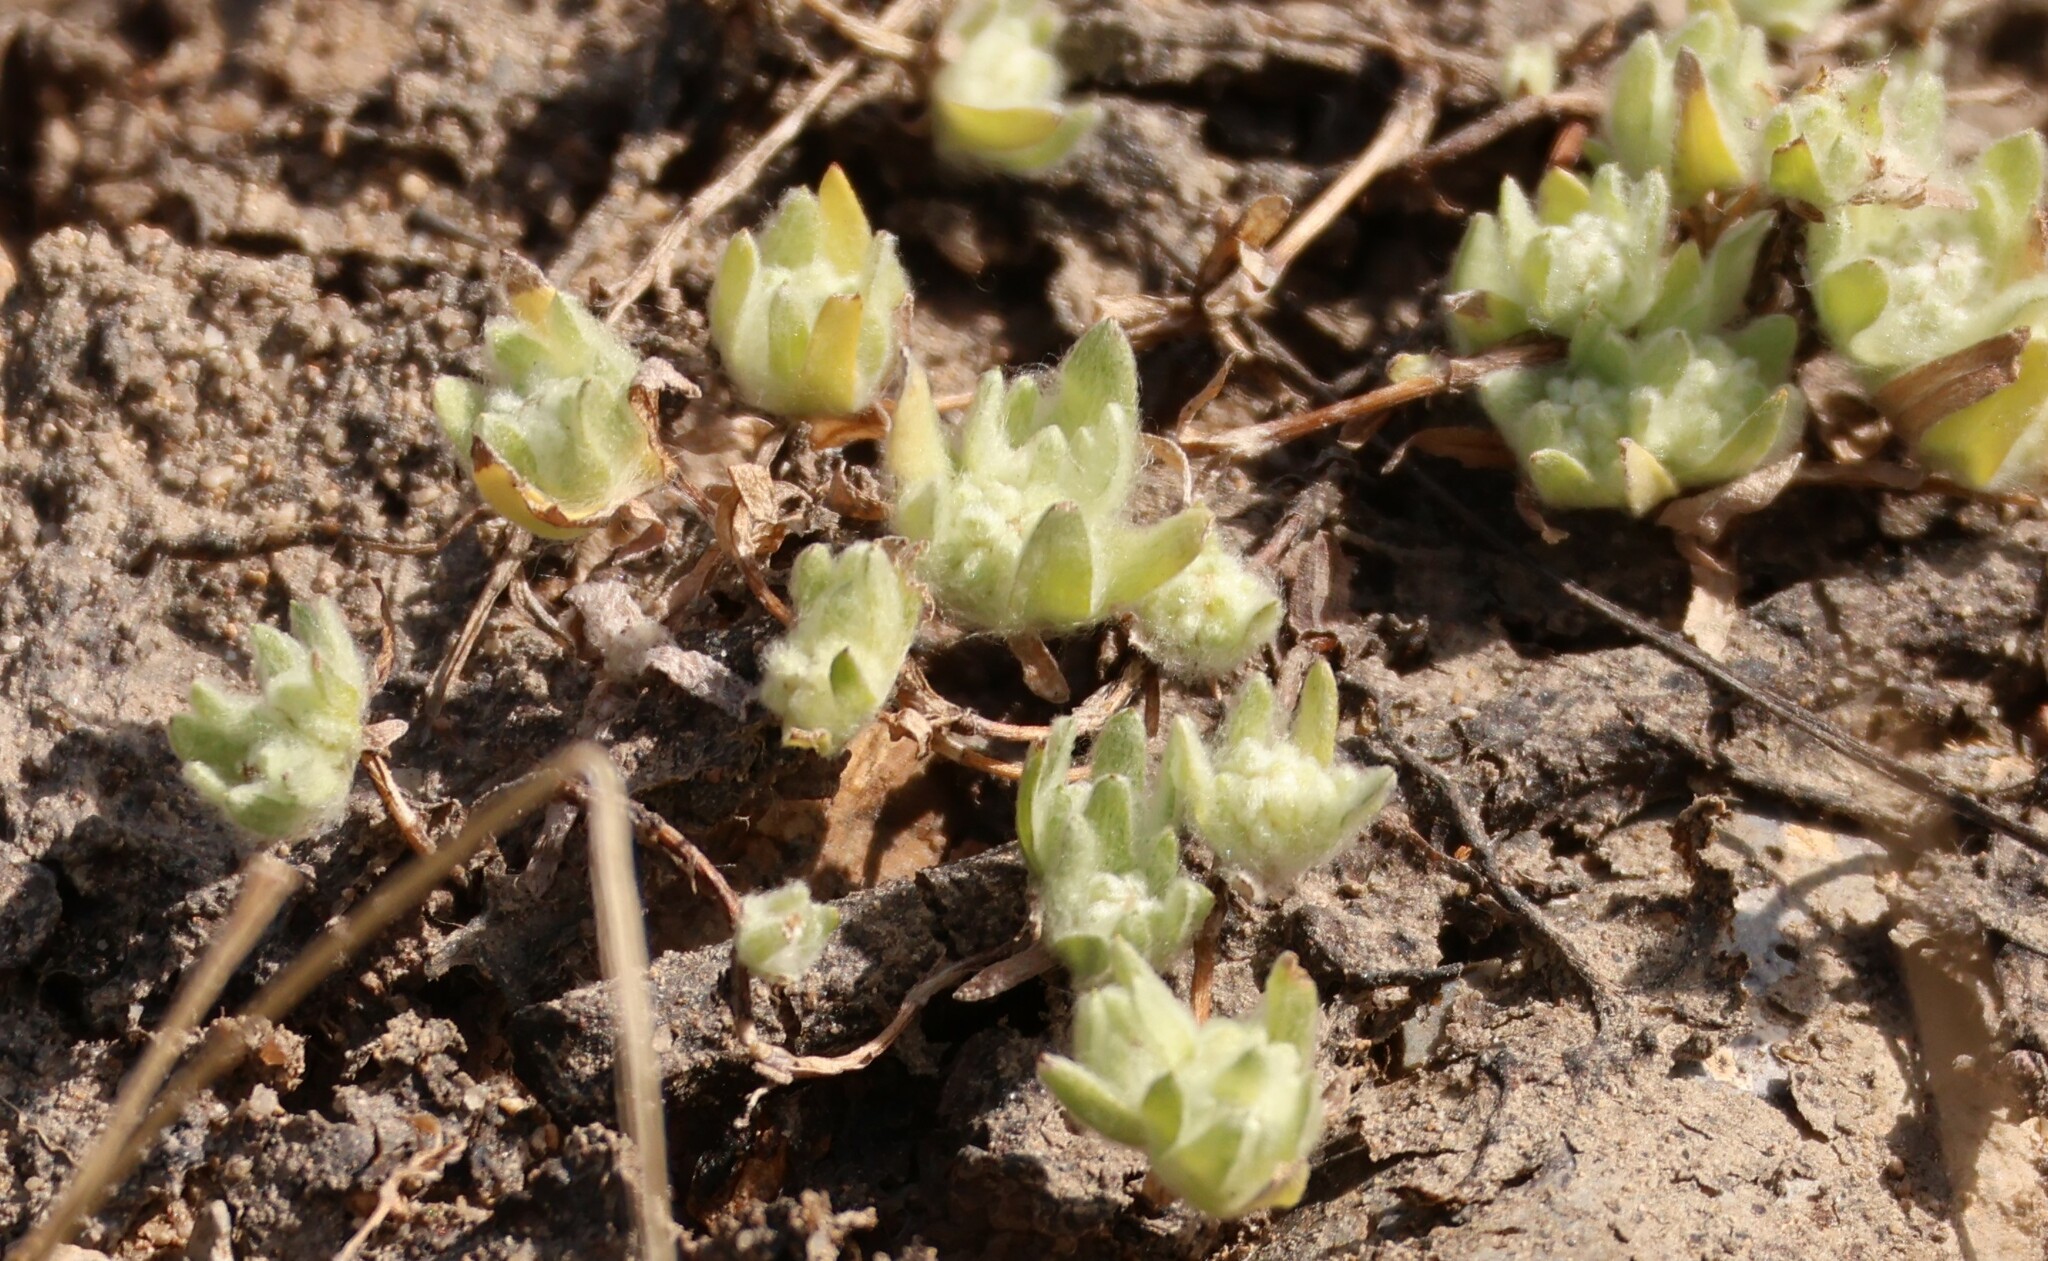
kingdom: Plantae
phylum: Tracheophyta
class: Magnoliopsida
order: Asterales
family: Asteraceae
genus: Psilocarphus
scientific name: Psilocarphus brevissimus
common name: Dwarf woollyheads
